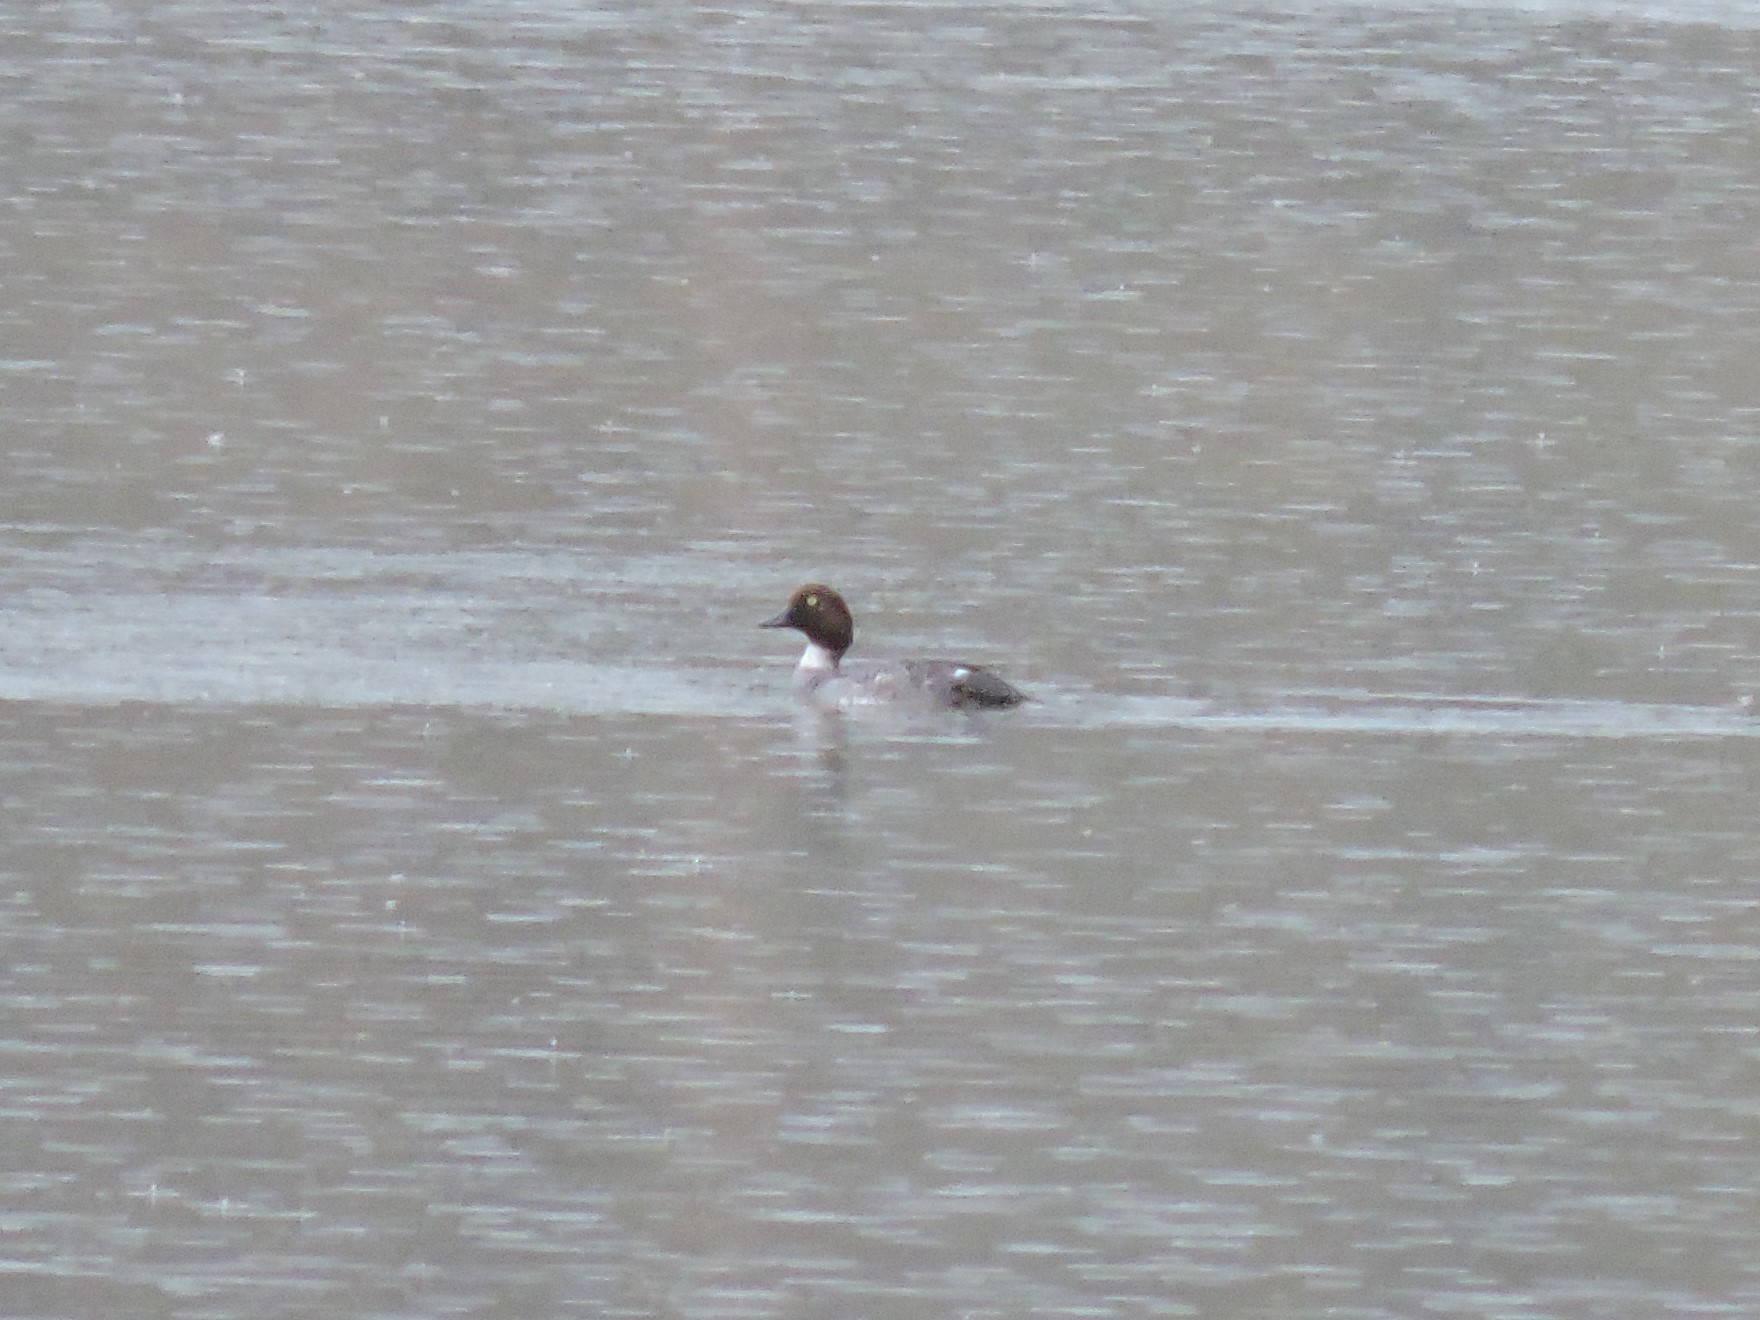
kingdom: Animalia
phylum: Chordata
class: Aves
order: Anseriformes
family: Anatidae
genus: Bucephala
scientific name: Bucephala clangula
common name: Common goldeneye
